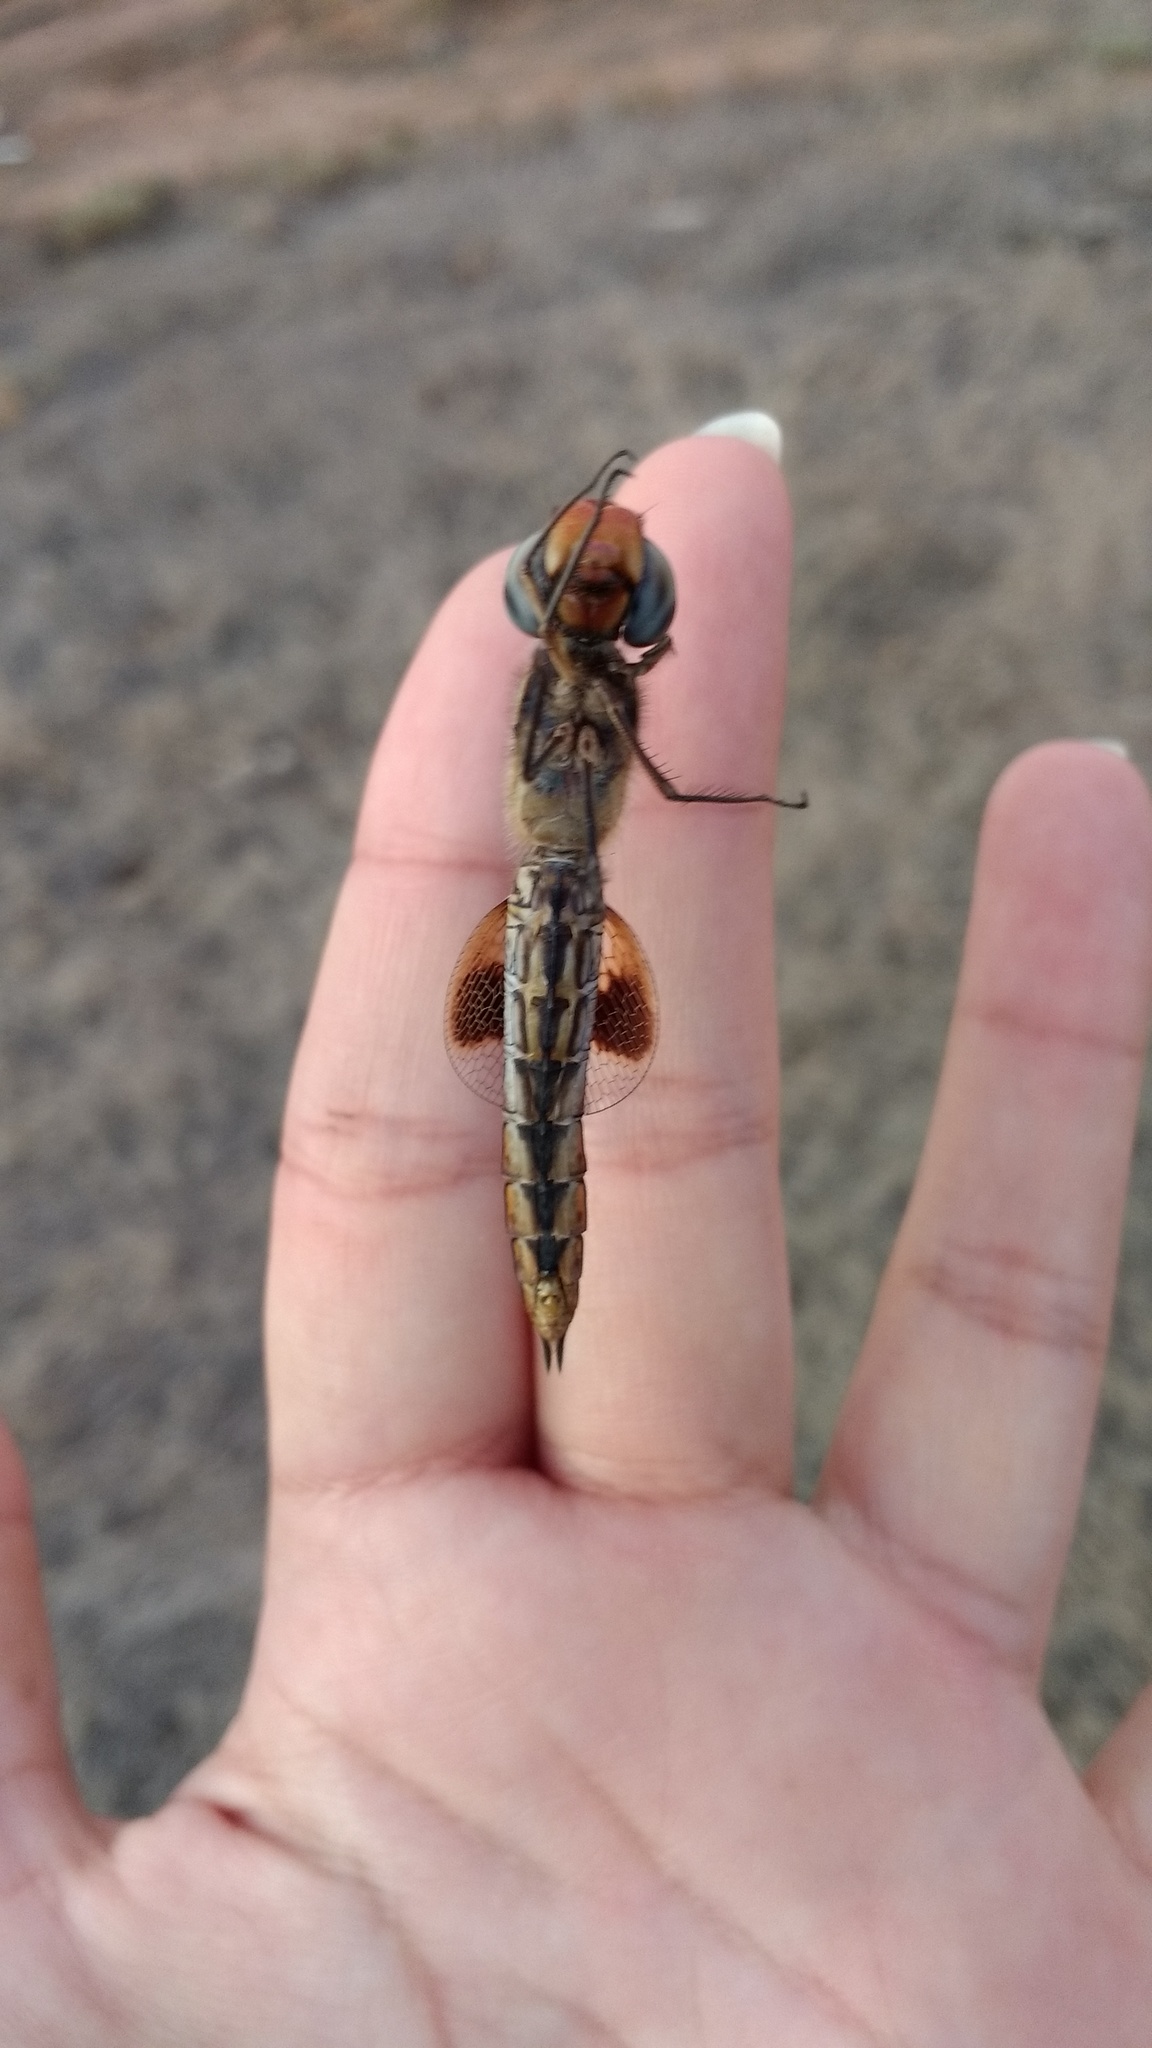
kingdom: Animalia
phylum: Arthropoda
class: Insecta
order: Odonata
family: Libellulidae
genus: Pantala
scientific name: Pantala hymenaea
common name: Spot-winged glider
